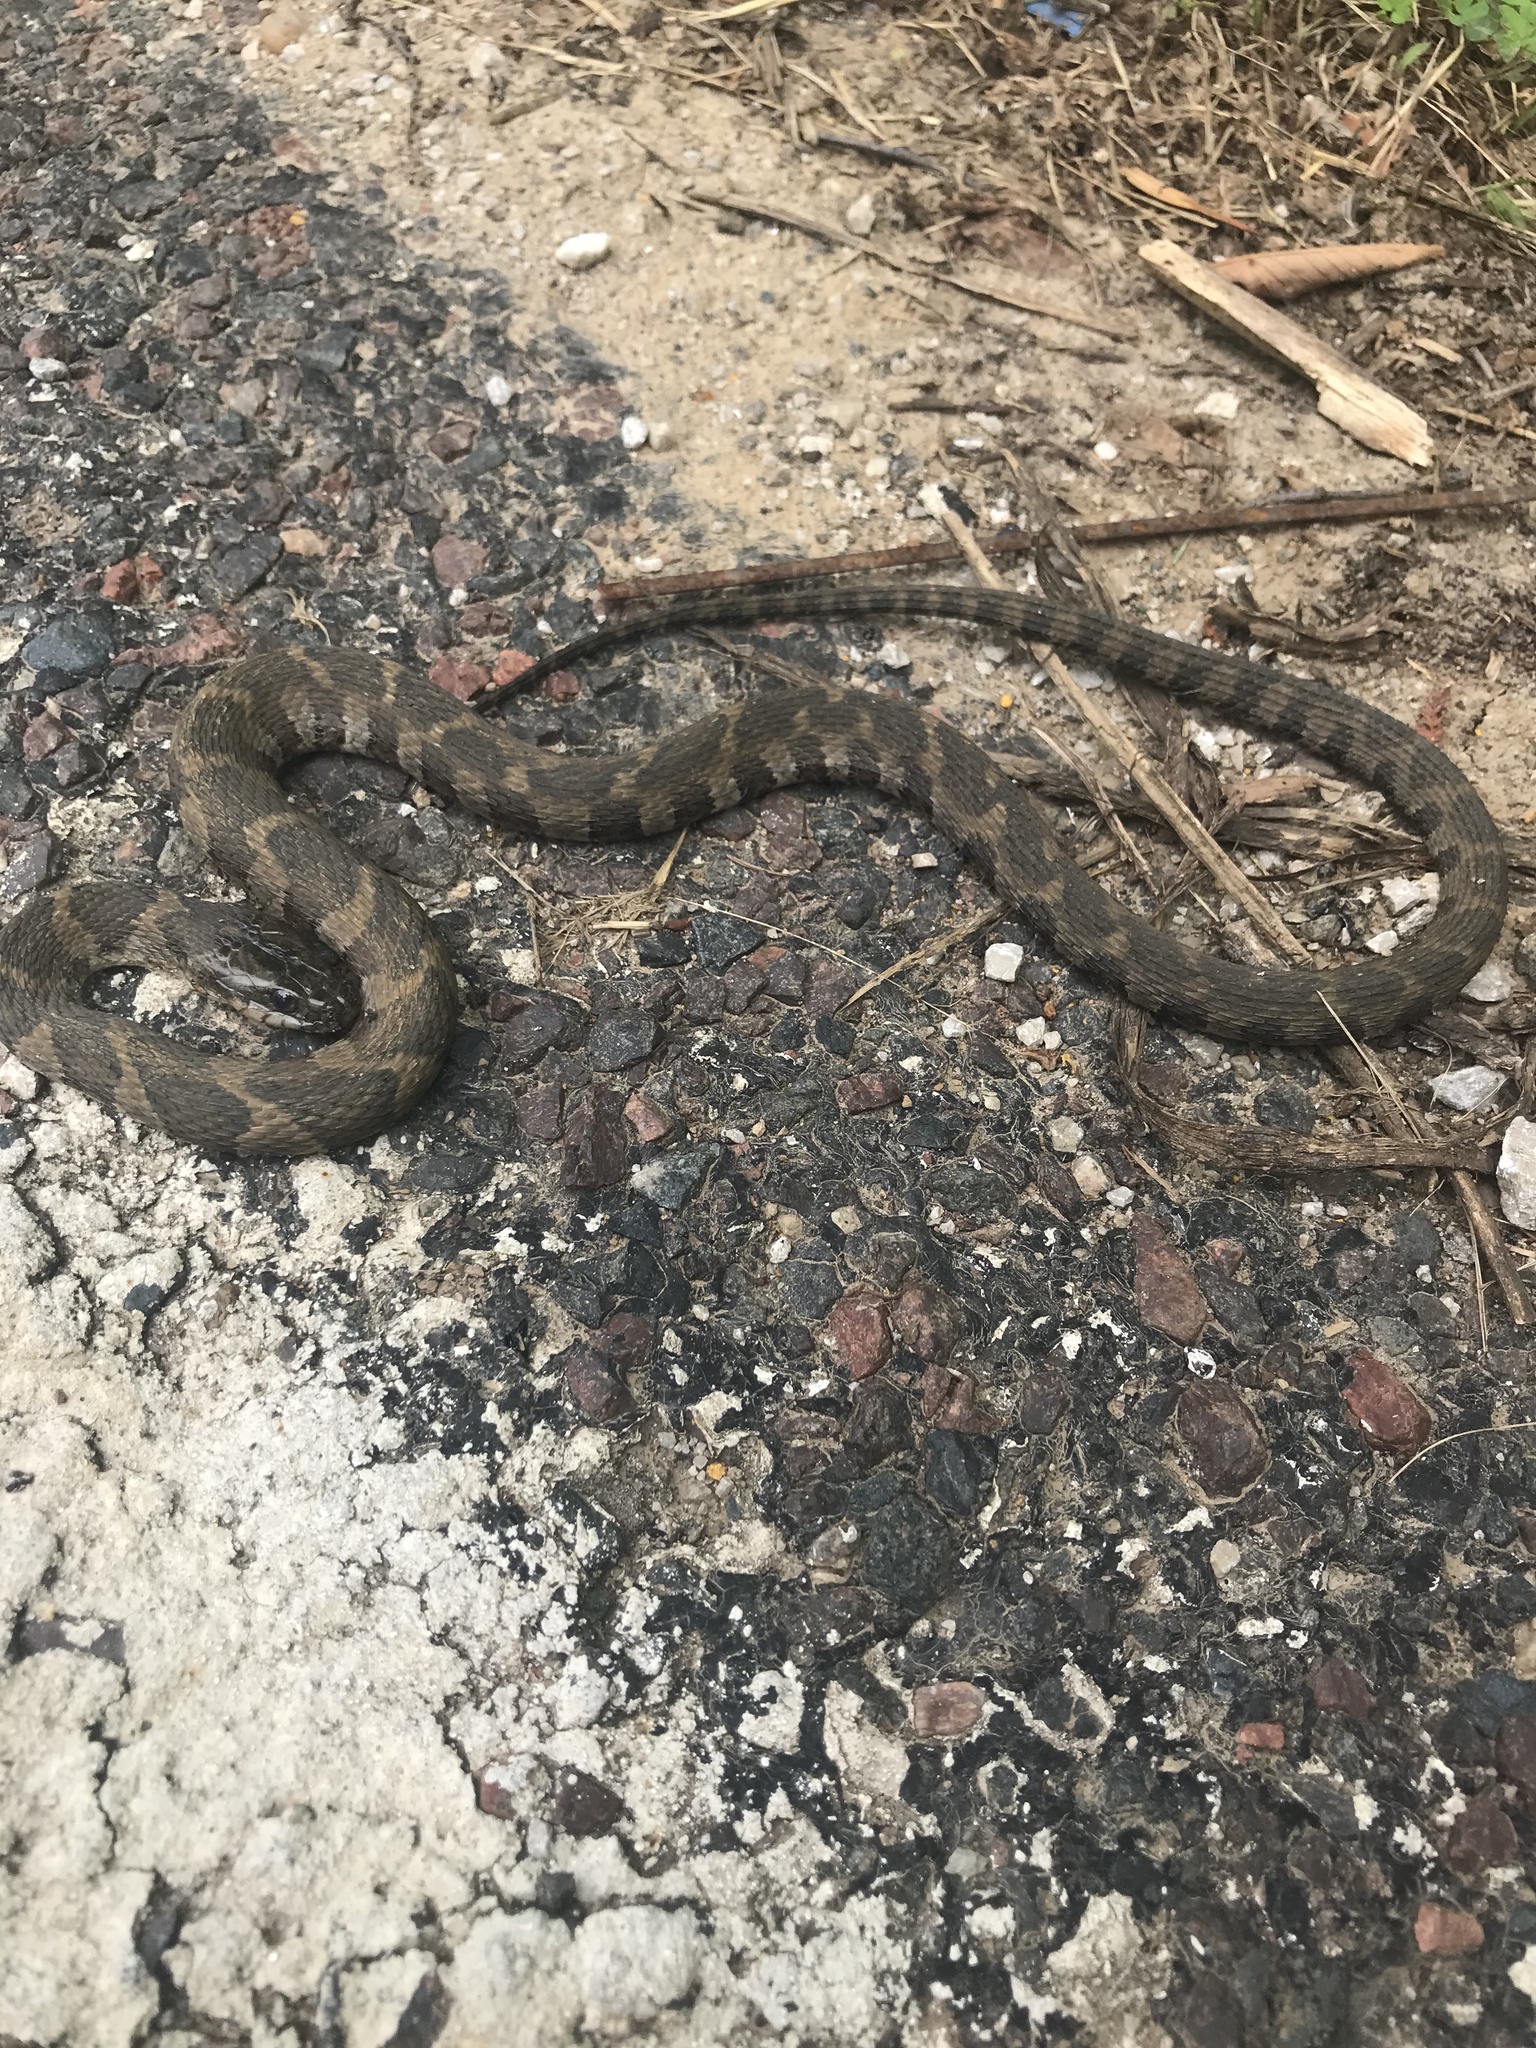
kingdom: Animalia
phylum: Chordata
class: Squamata
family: Colubridae
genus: Nerodia
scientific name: Nerodia sipedon
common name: Northern water snake
